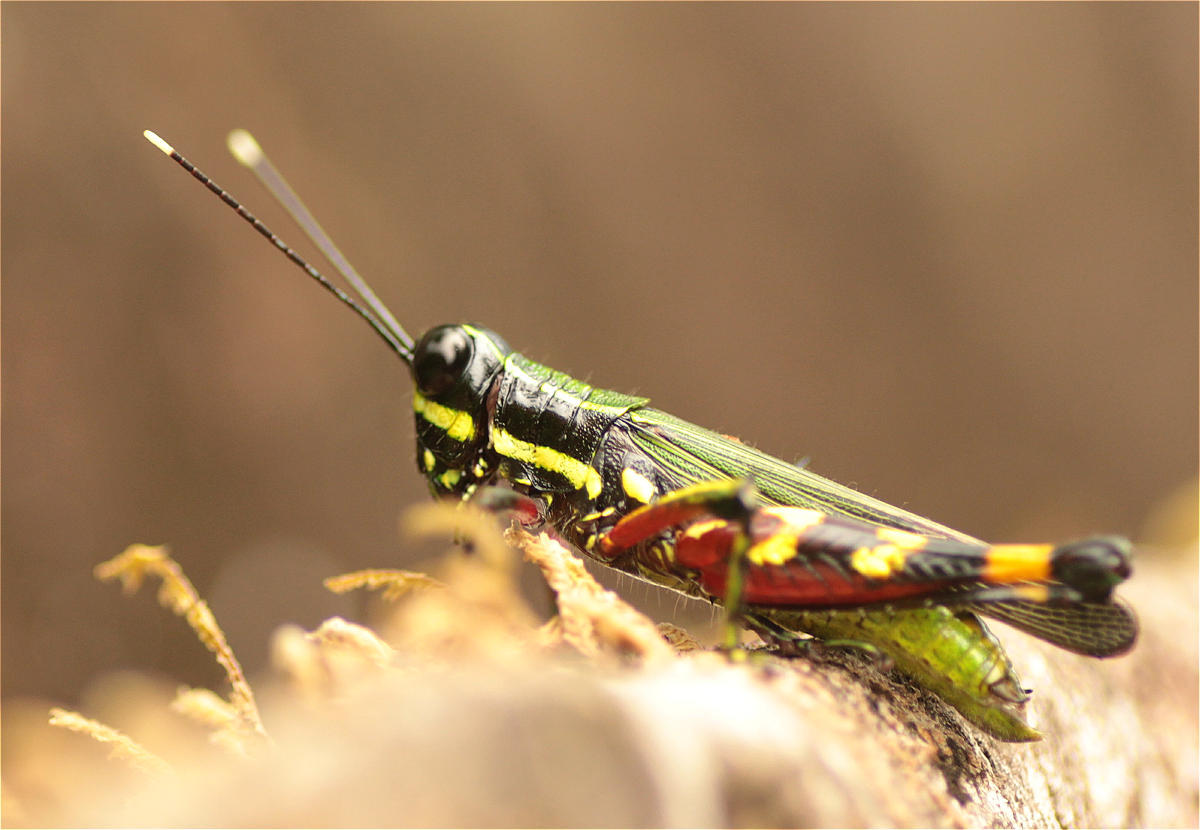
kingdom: Animalia
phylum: Arthropoda
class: Insecta
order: Orthoptera
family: Acrididae
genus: Tetrataenia
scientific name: Tetrataenia surinama
